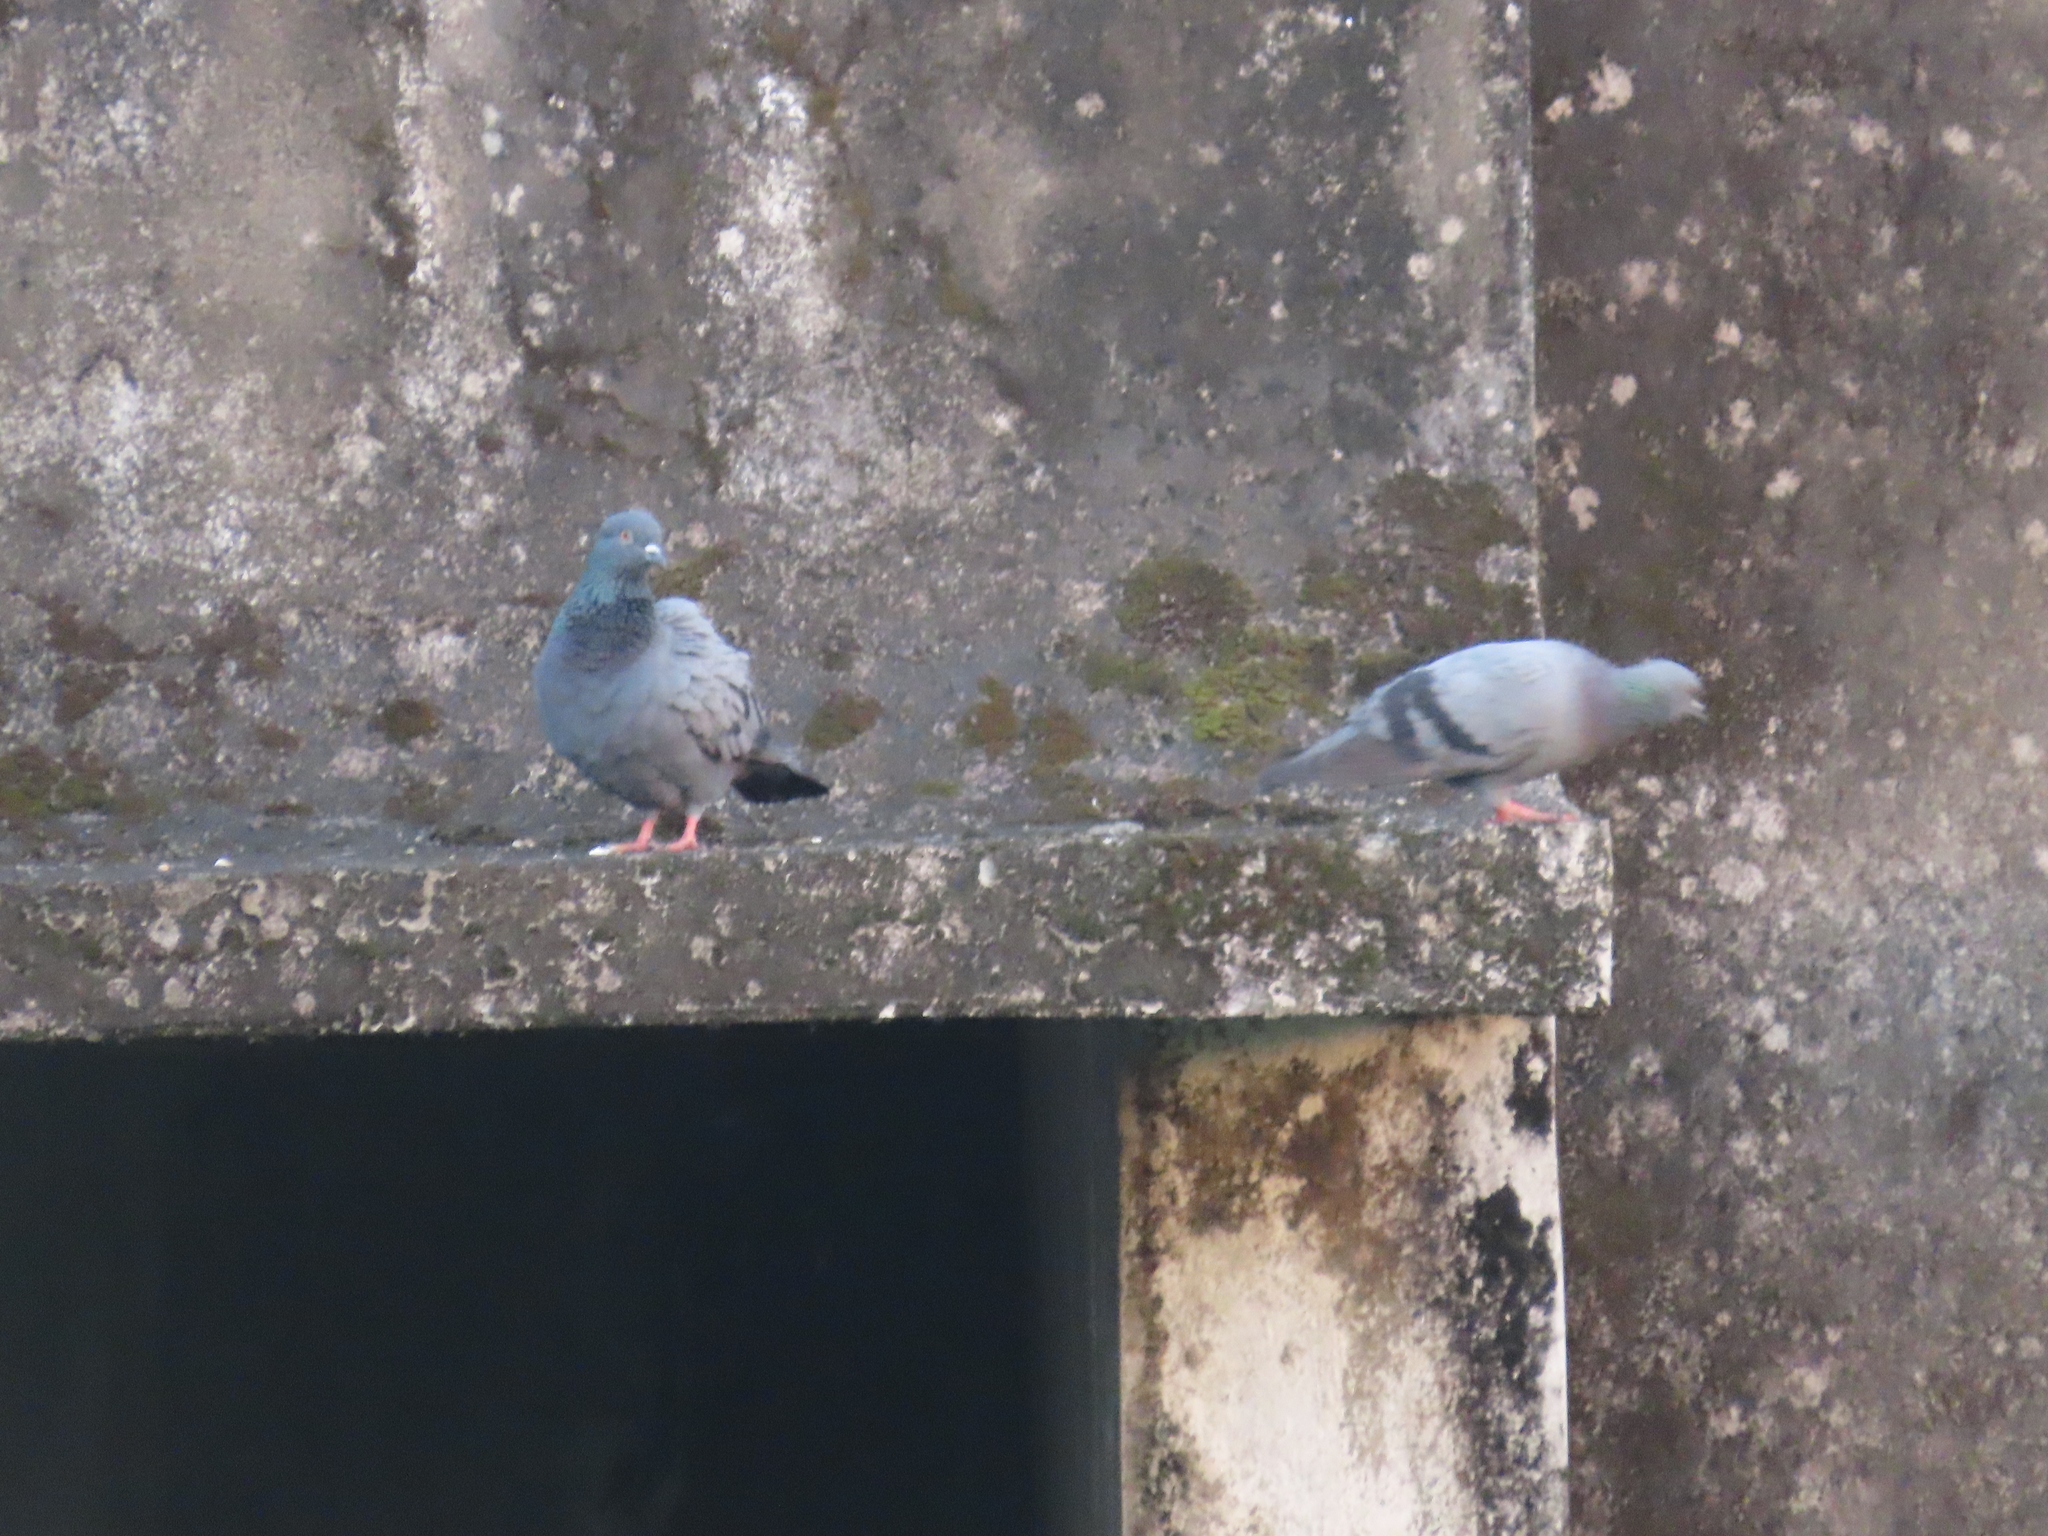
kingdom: Animalia
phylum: Chordata
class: Aves
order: Columbiformes
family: Columbidae
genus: Columba
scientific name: Columba livia
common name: Rock pigeon
